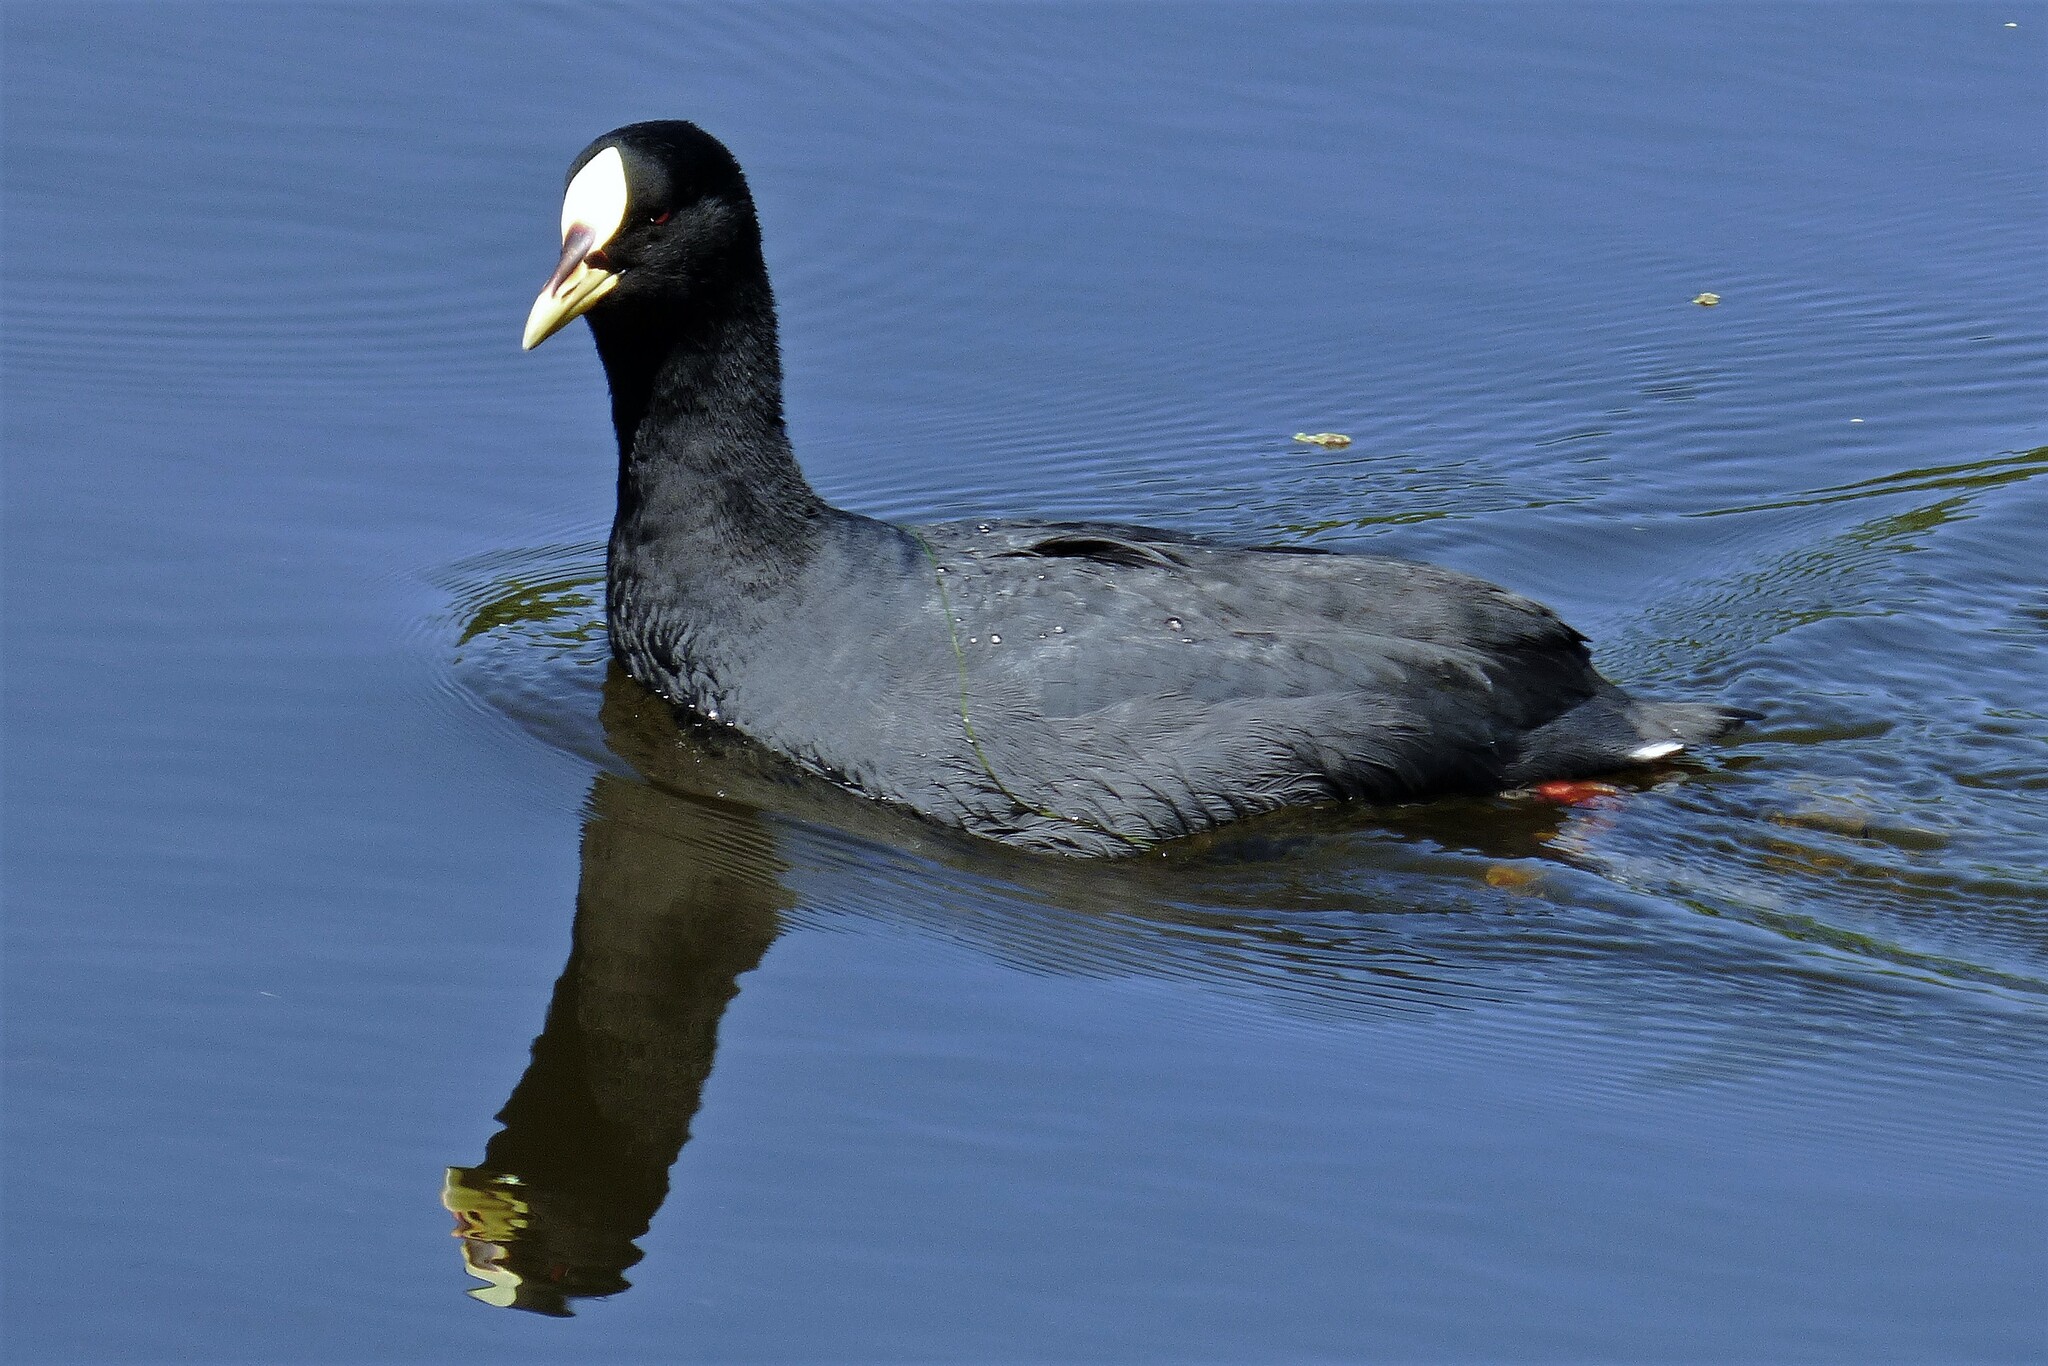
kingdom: Animalia
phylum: Chordata
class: Aves
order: Gruiformes
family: Rallidae
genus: Fulica
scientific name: Fulica armillata
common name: Red-gartered coot
